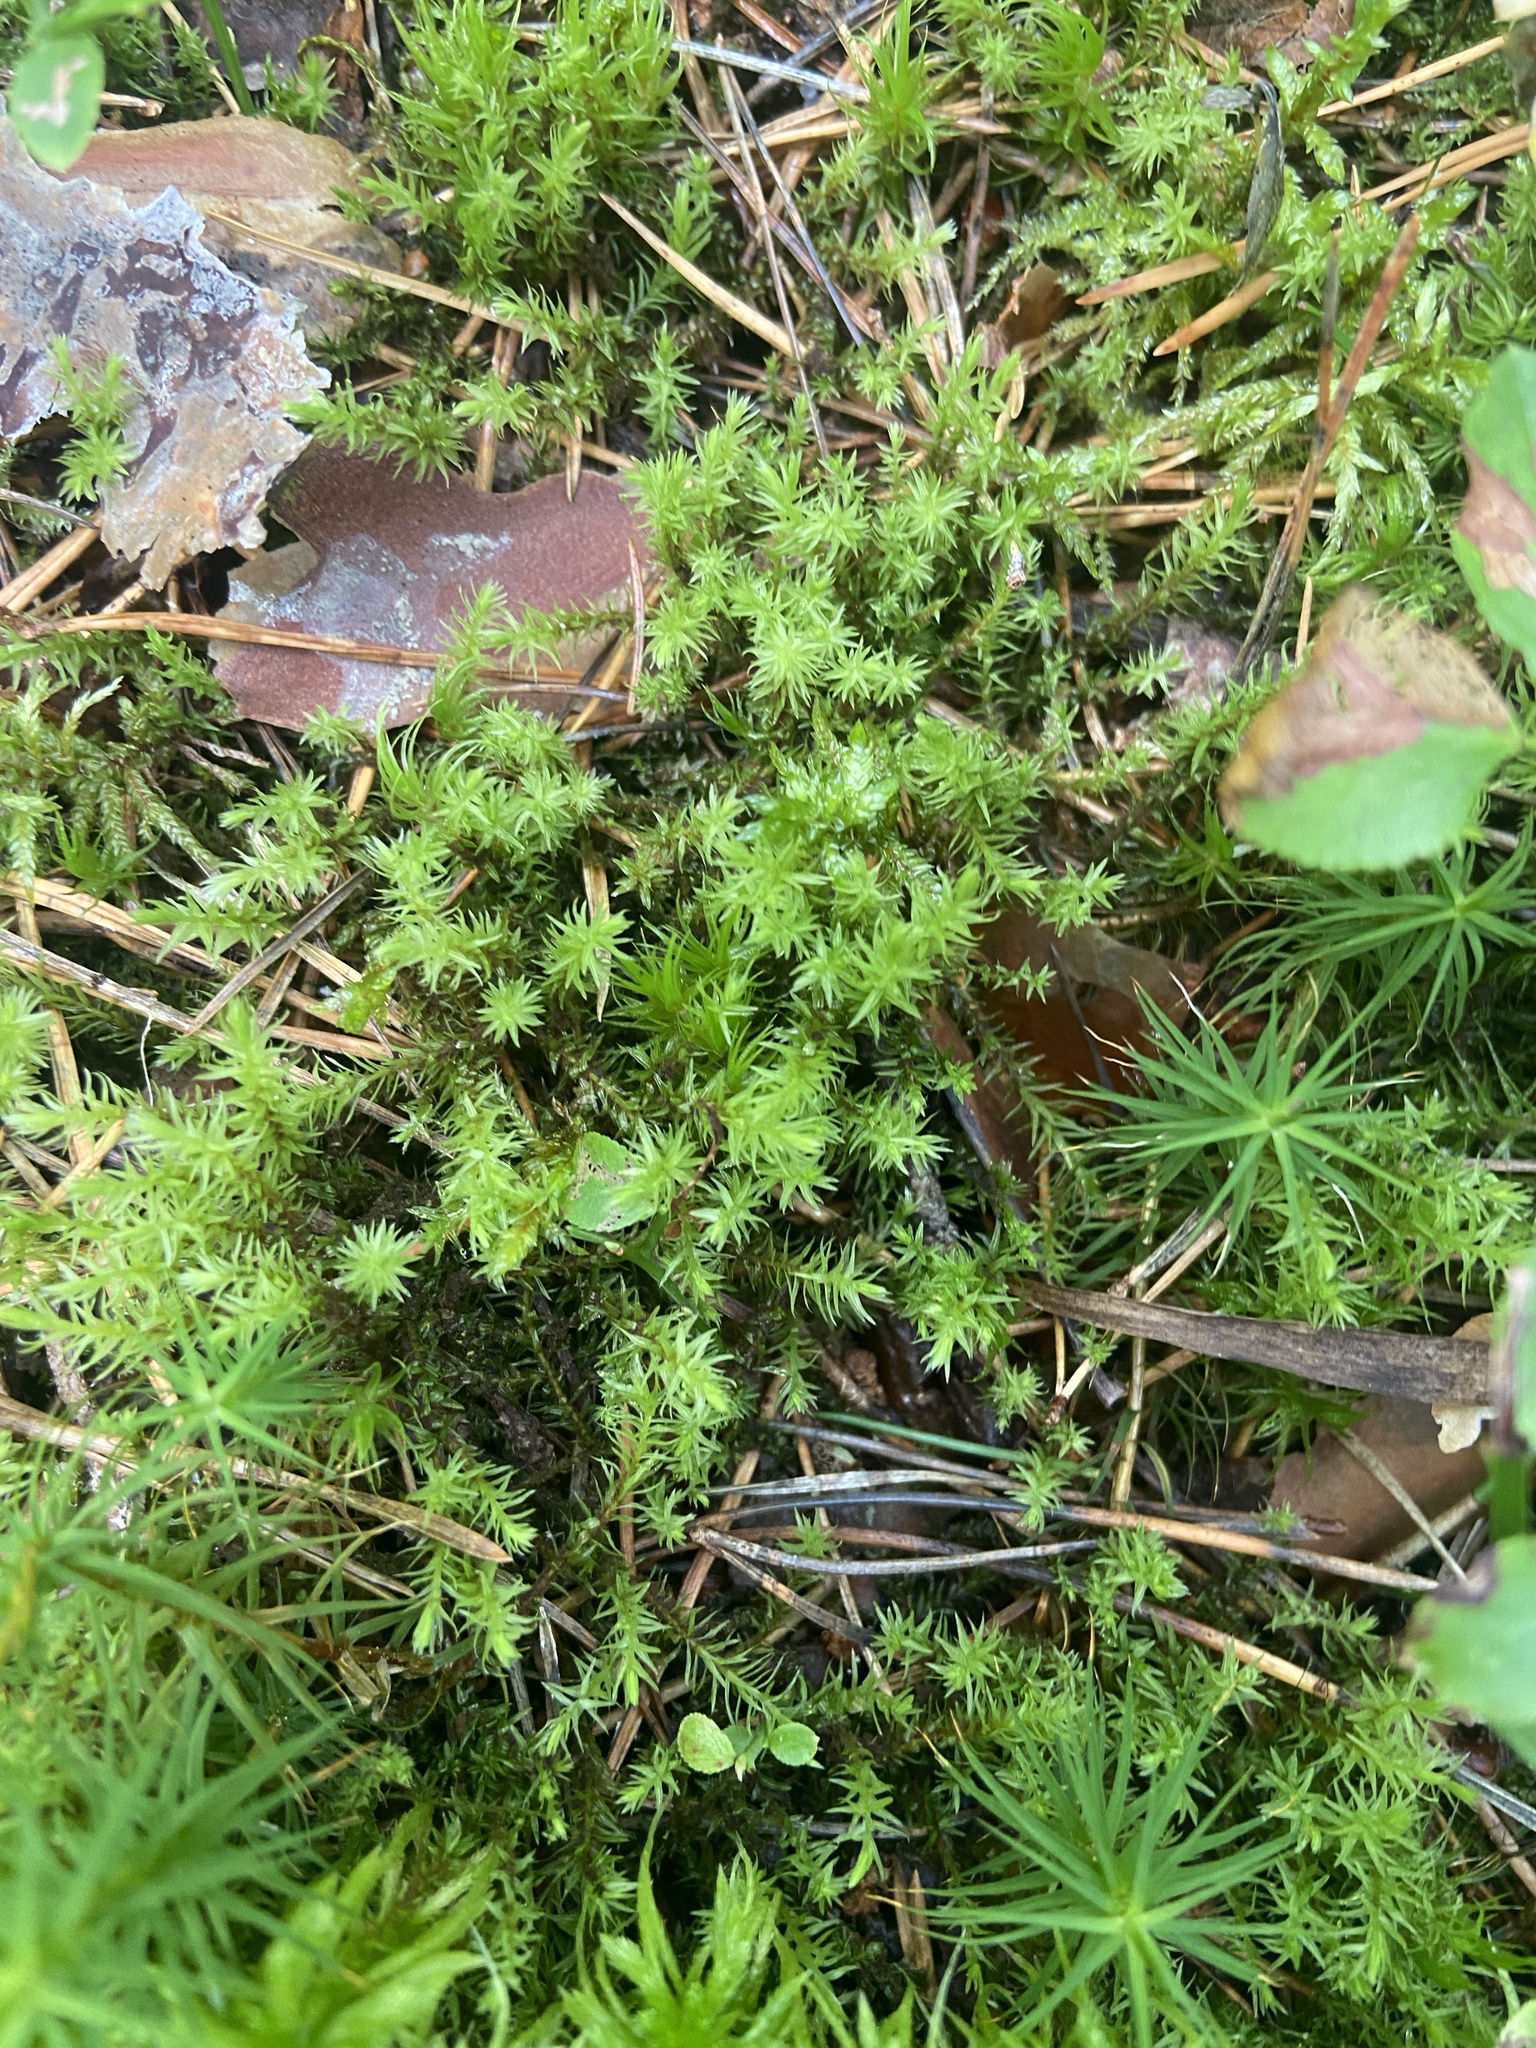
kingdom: Plantae
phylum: Bryophyta
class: Bryopsida
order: Aulacomniales
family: Aulacomniaceae
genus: Aulacomnium
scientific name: Aulacomnium palustre
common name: Bog groove-moss
